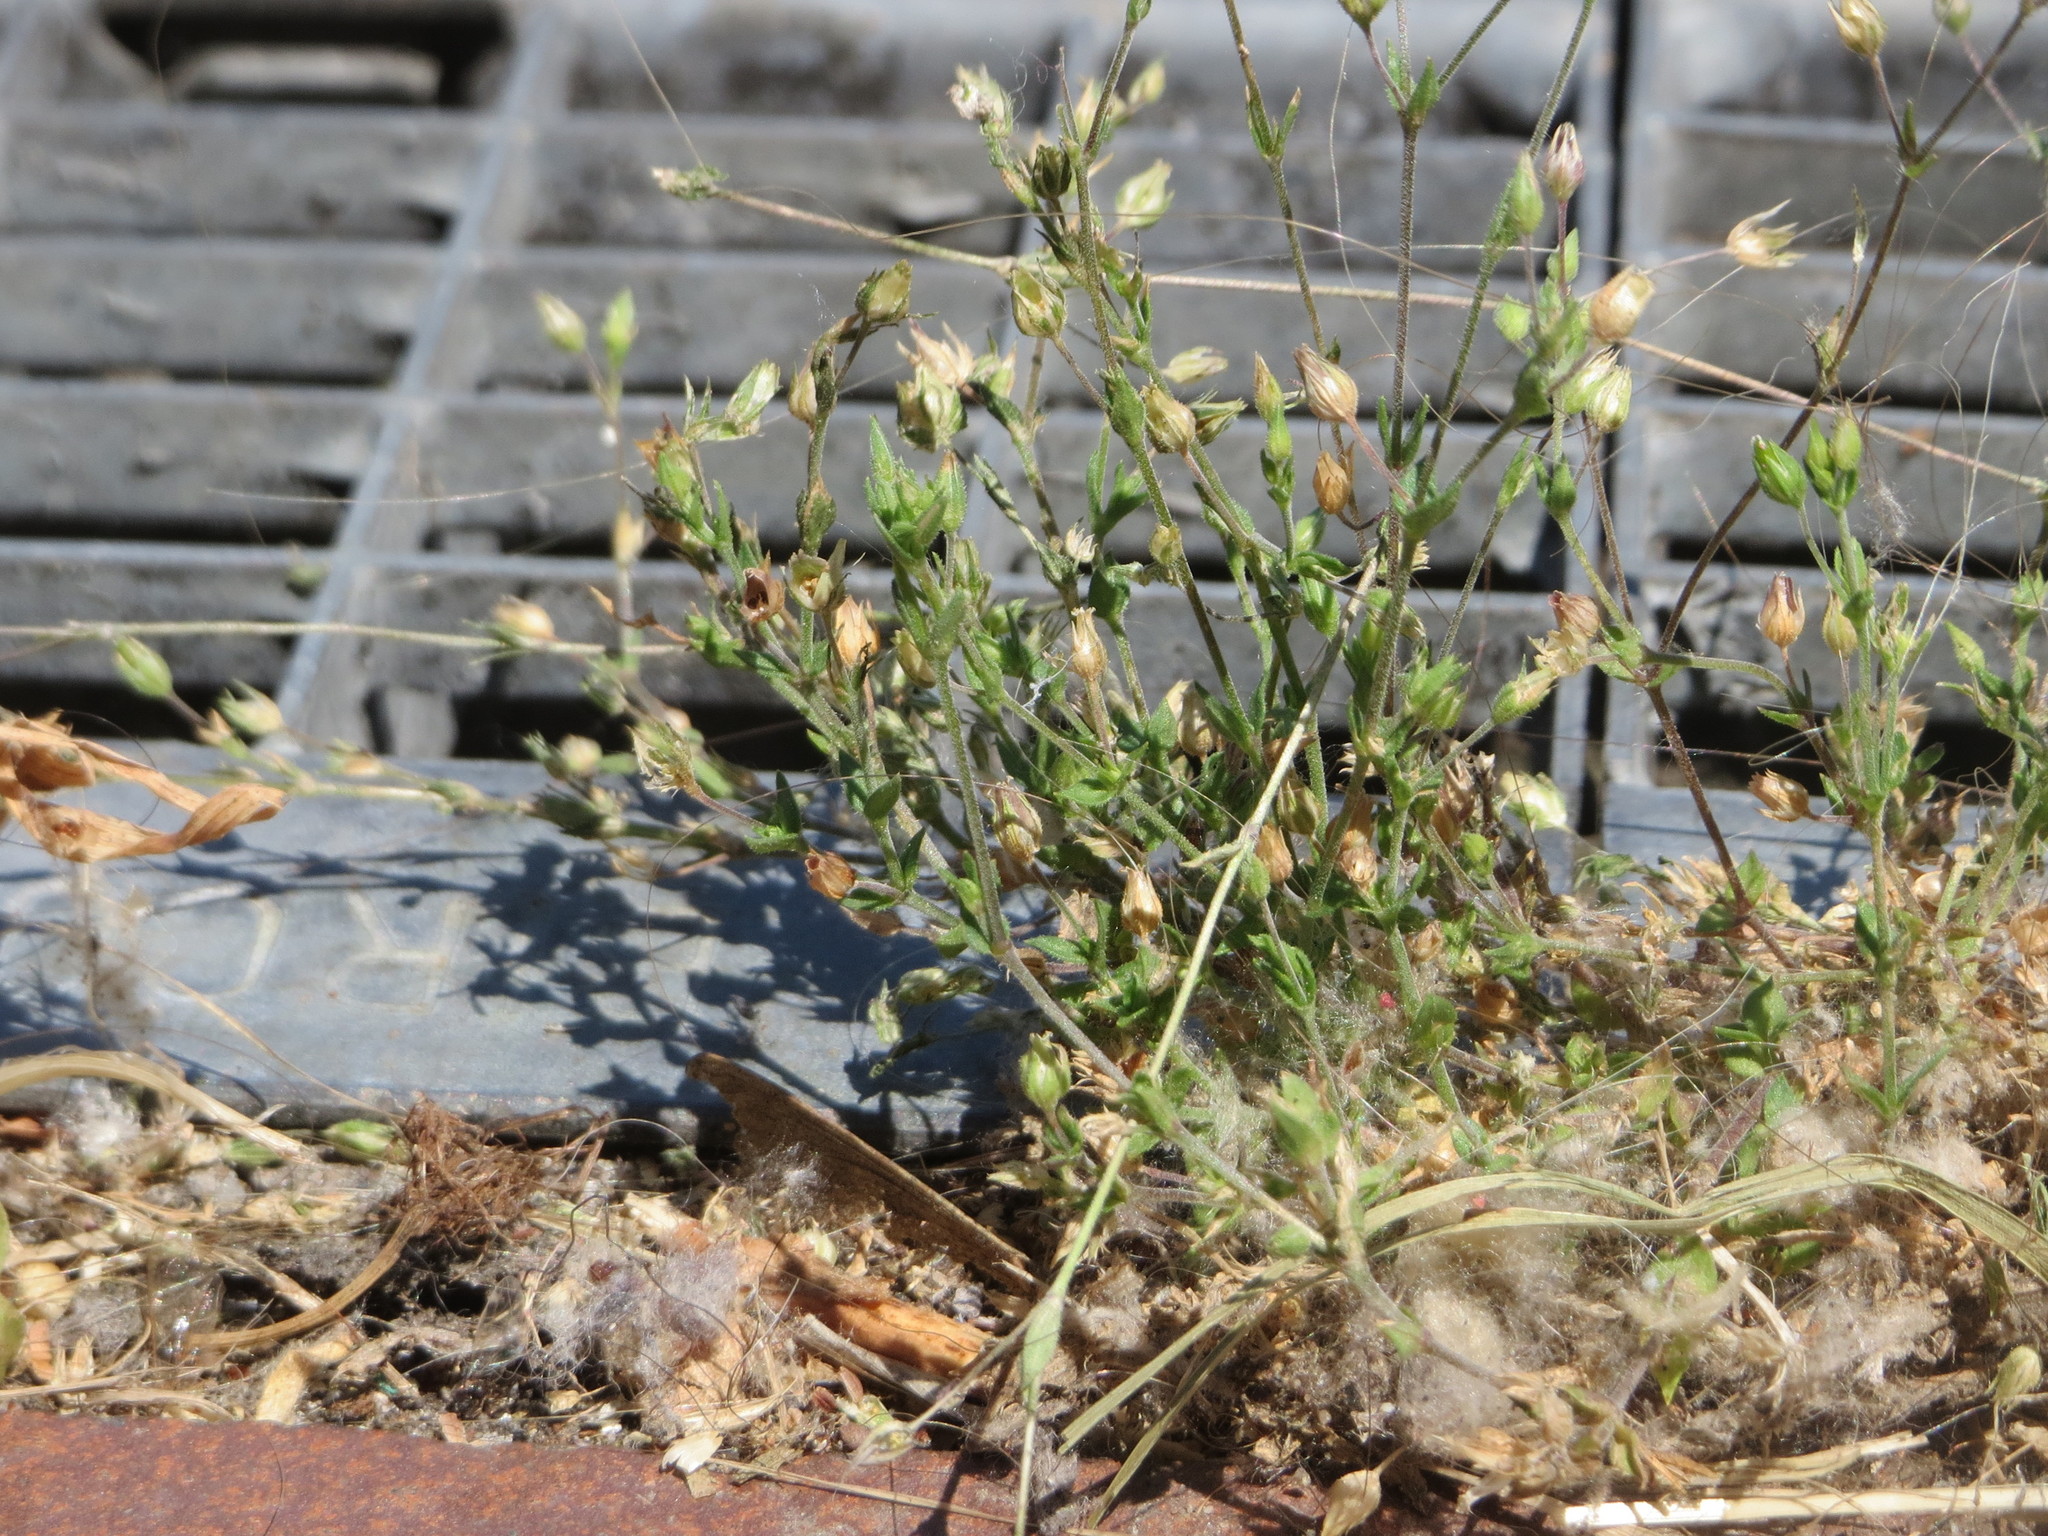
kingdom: Plantae
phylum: Tracheophyta
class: Magnoliopsida
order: Caryophyllales
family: Caryophyllaceae
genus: Arenaria
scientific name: Arenaria serpyllifolia
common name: Thyme-leaved sandwort
